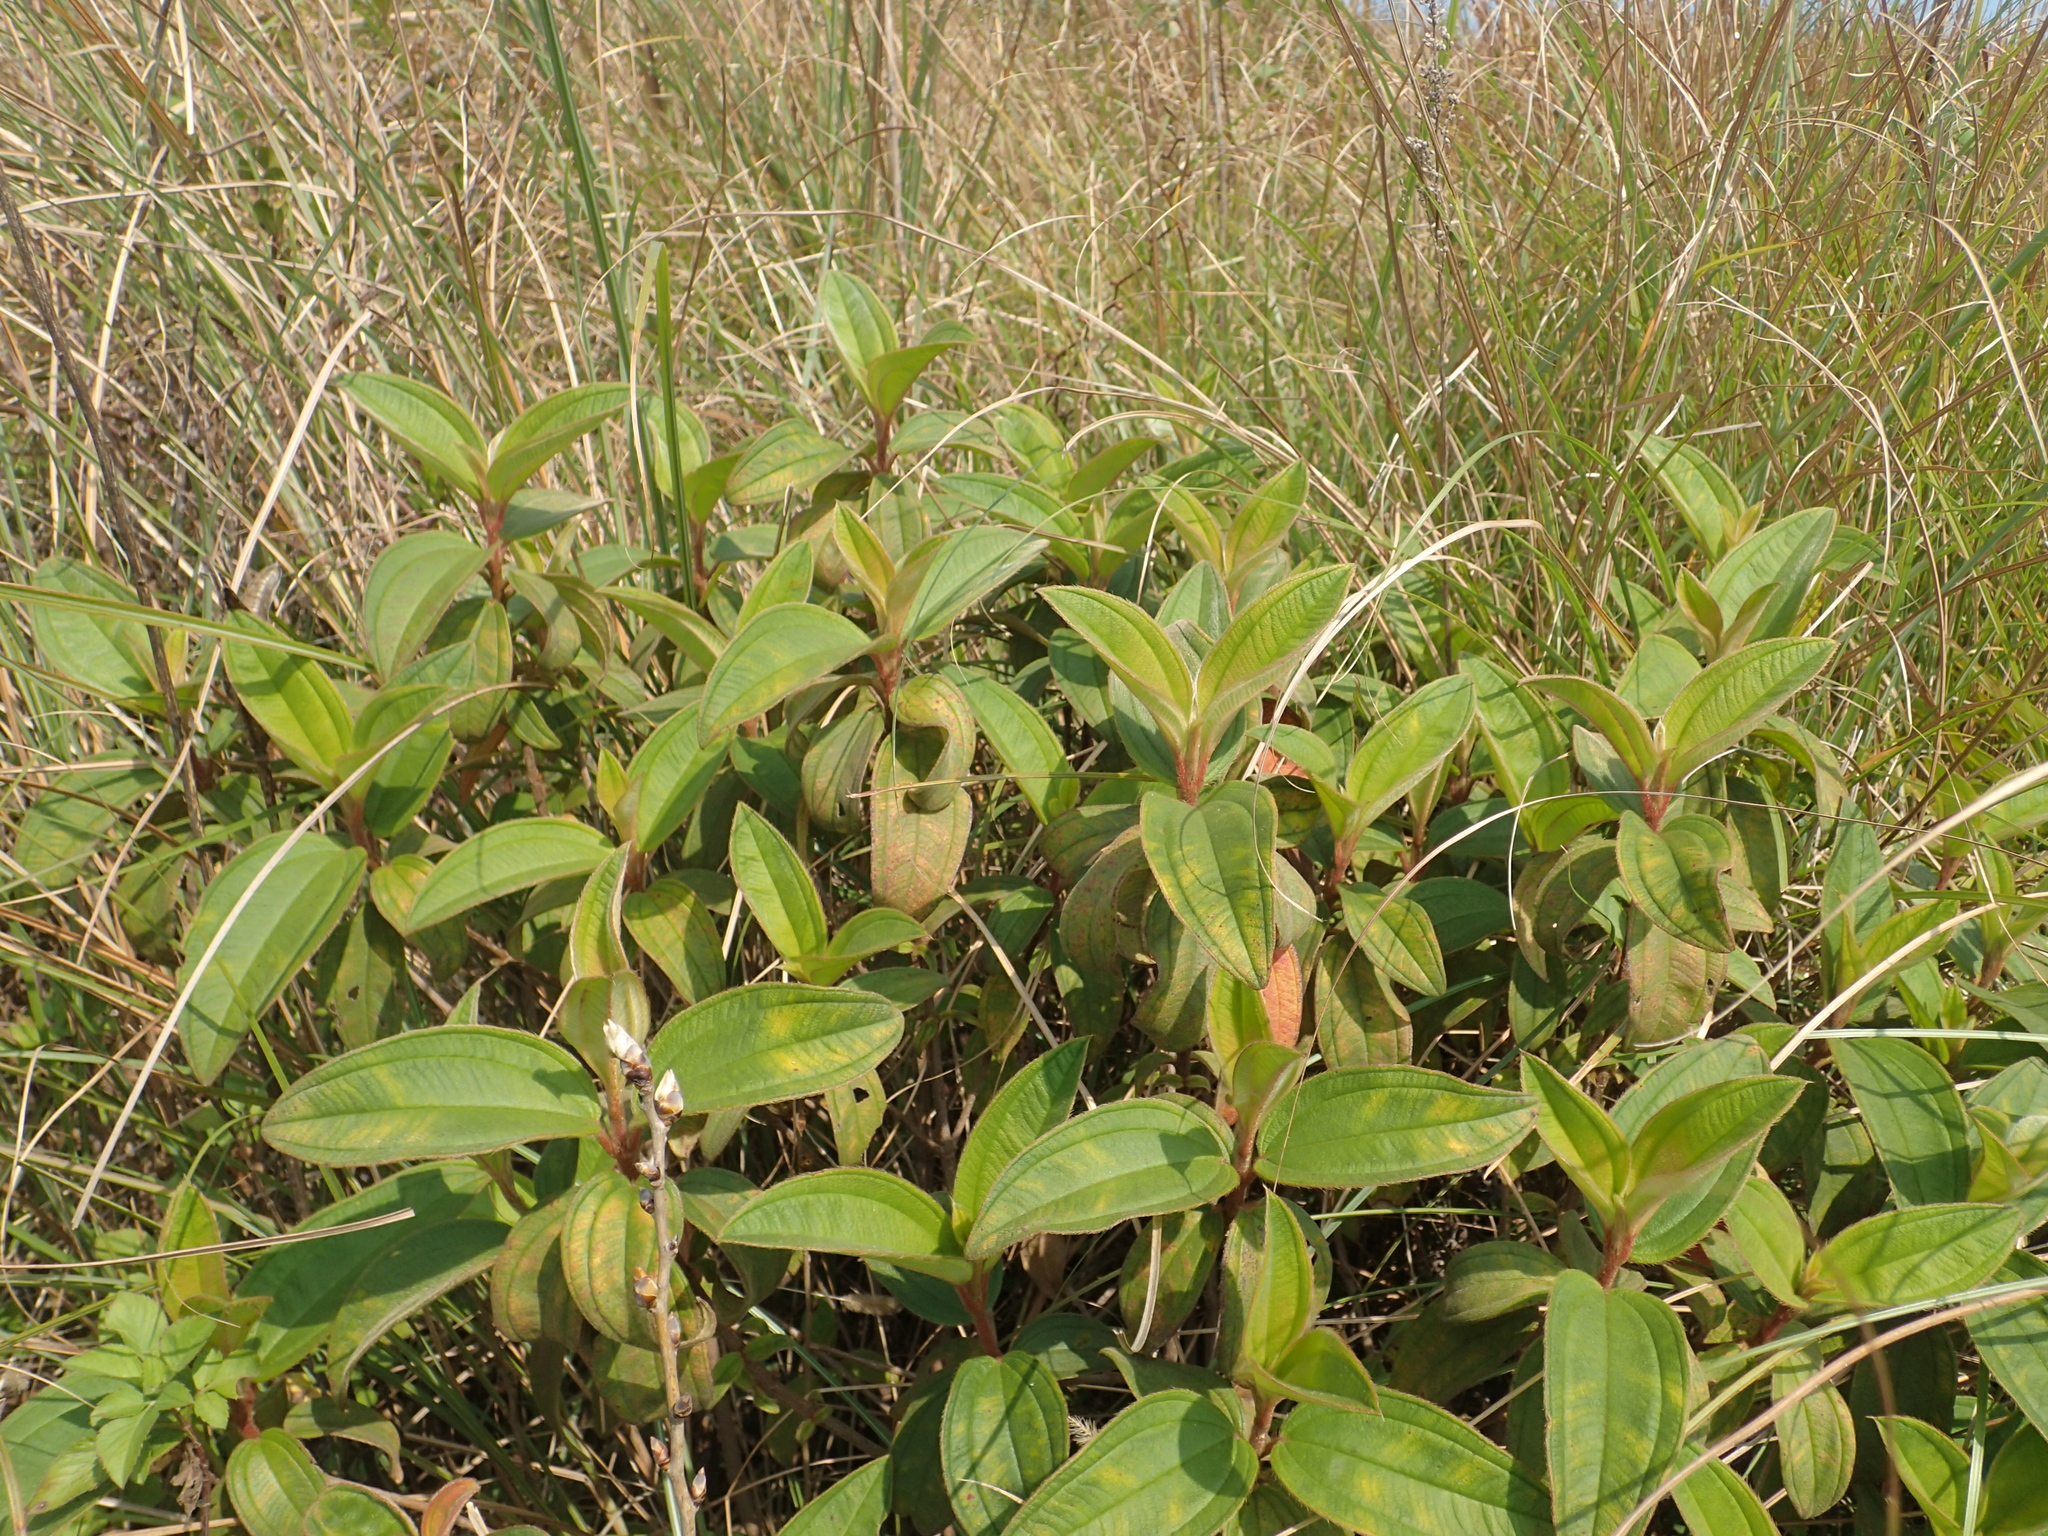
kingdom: Plantae
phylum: Tracheophyta
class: Magnoliopsida
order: Myrtales
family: Melastomataceae
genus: Melastoma
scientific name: Melastoma malabathricum
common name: Indian-rhododendron
